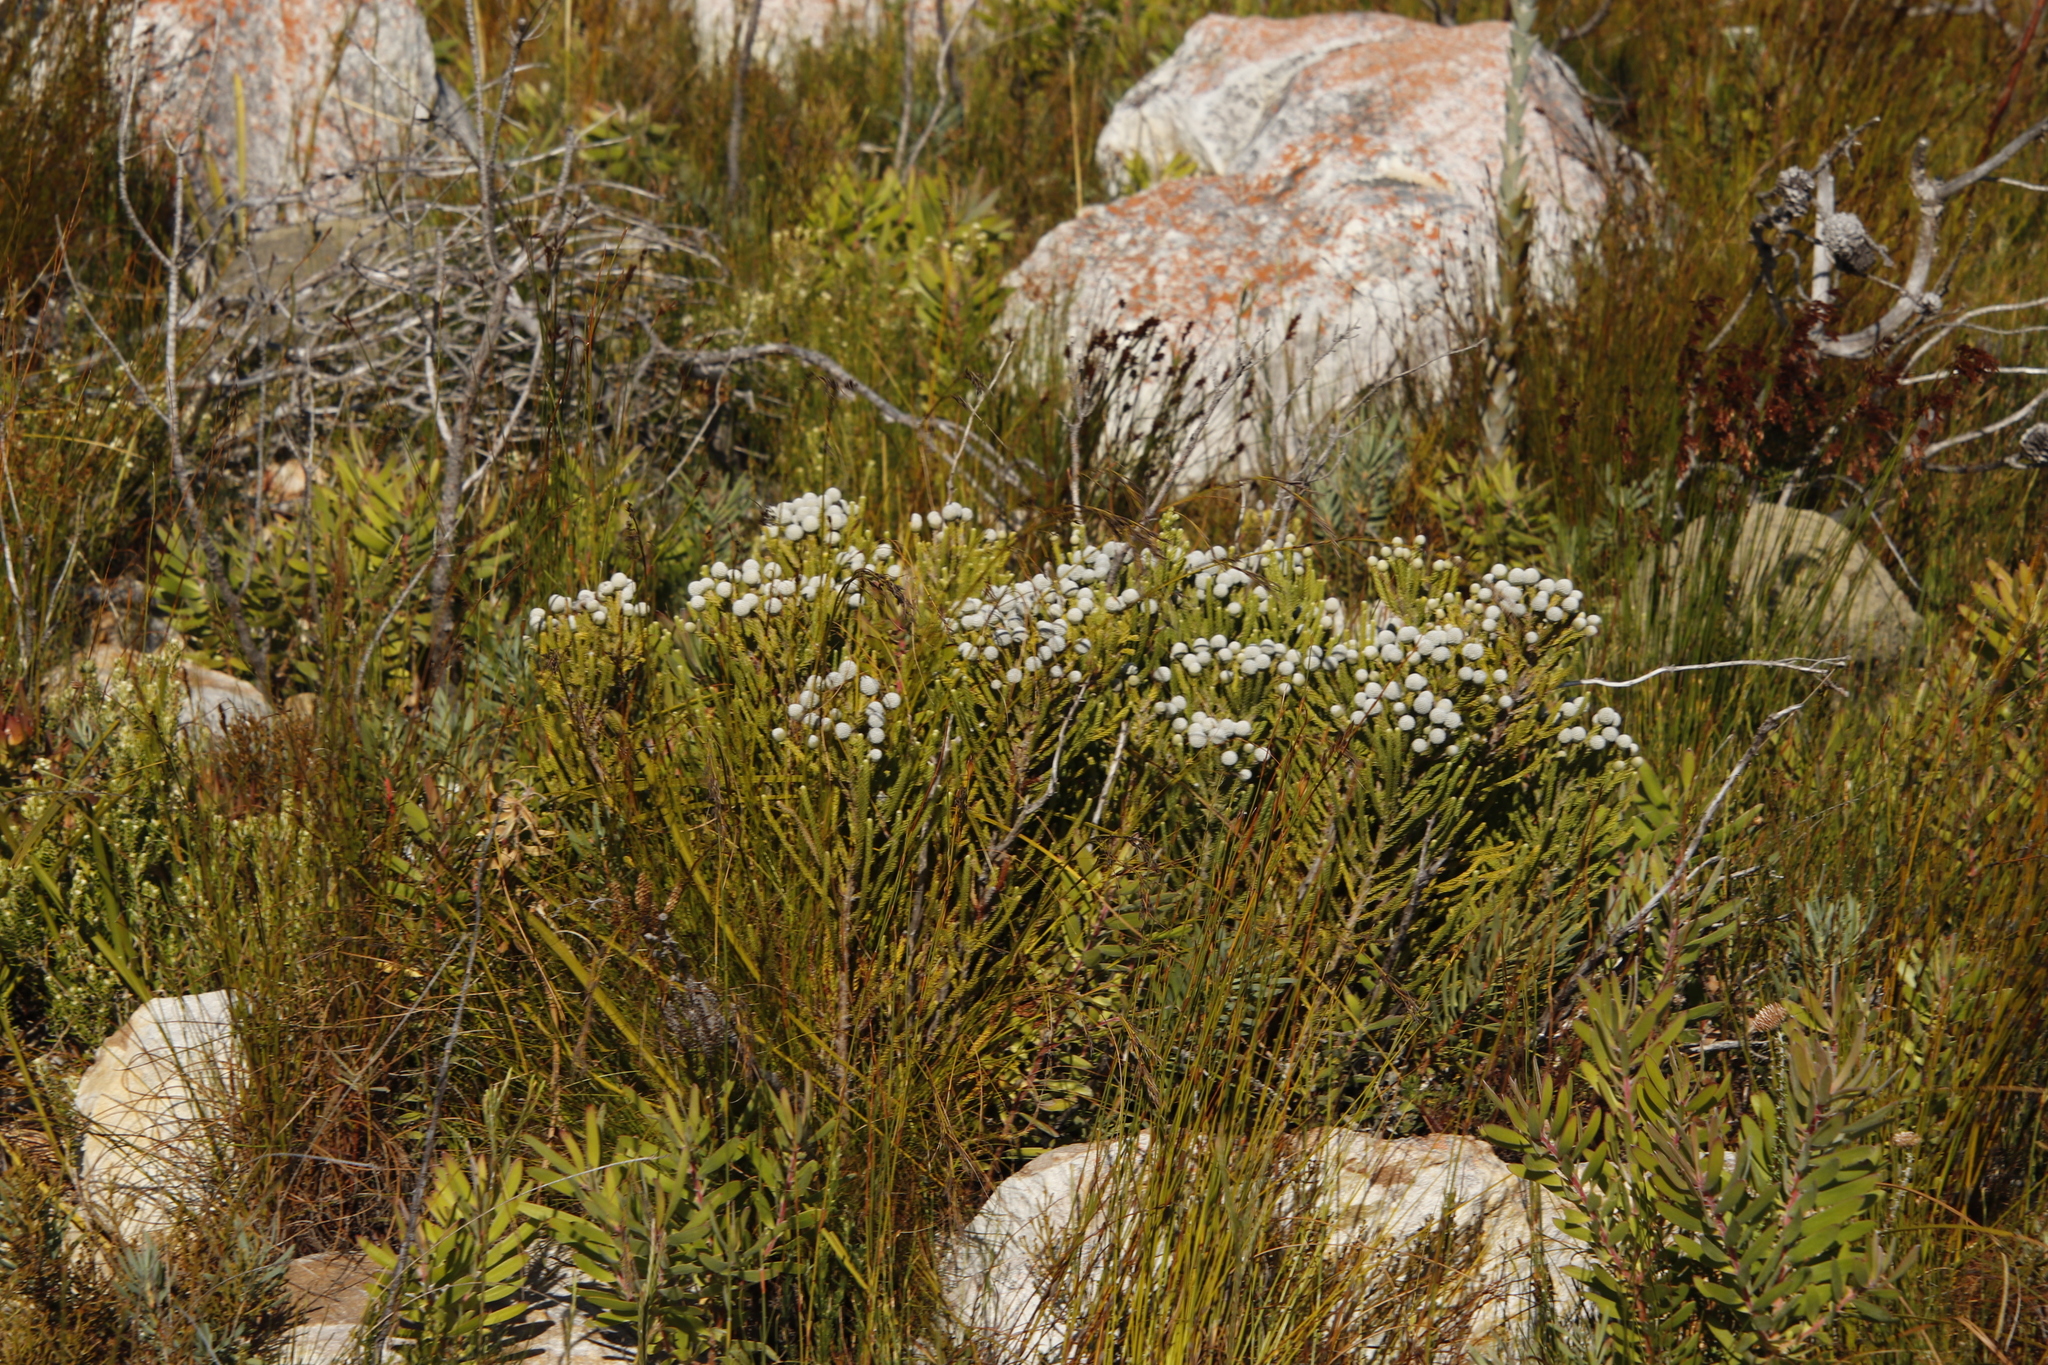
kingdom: Plantae
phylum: Tracheophyta
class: Magnoliopsida
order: Bruniales
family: Bruniaceae
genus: Brunia
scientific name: Brunia noduliflora
